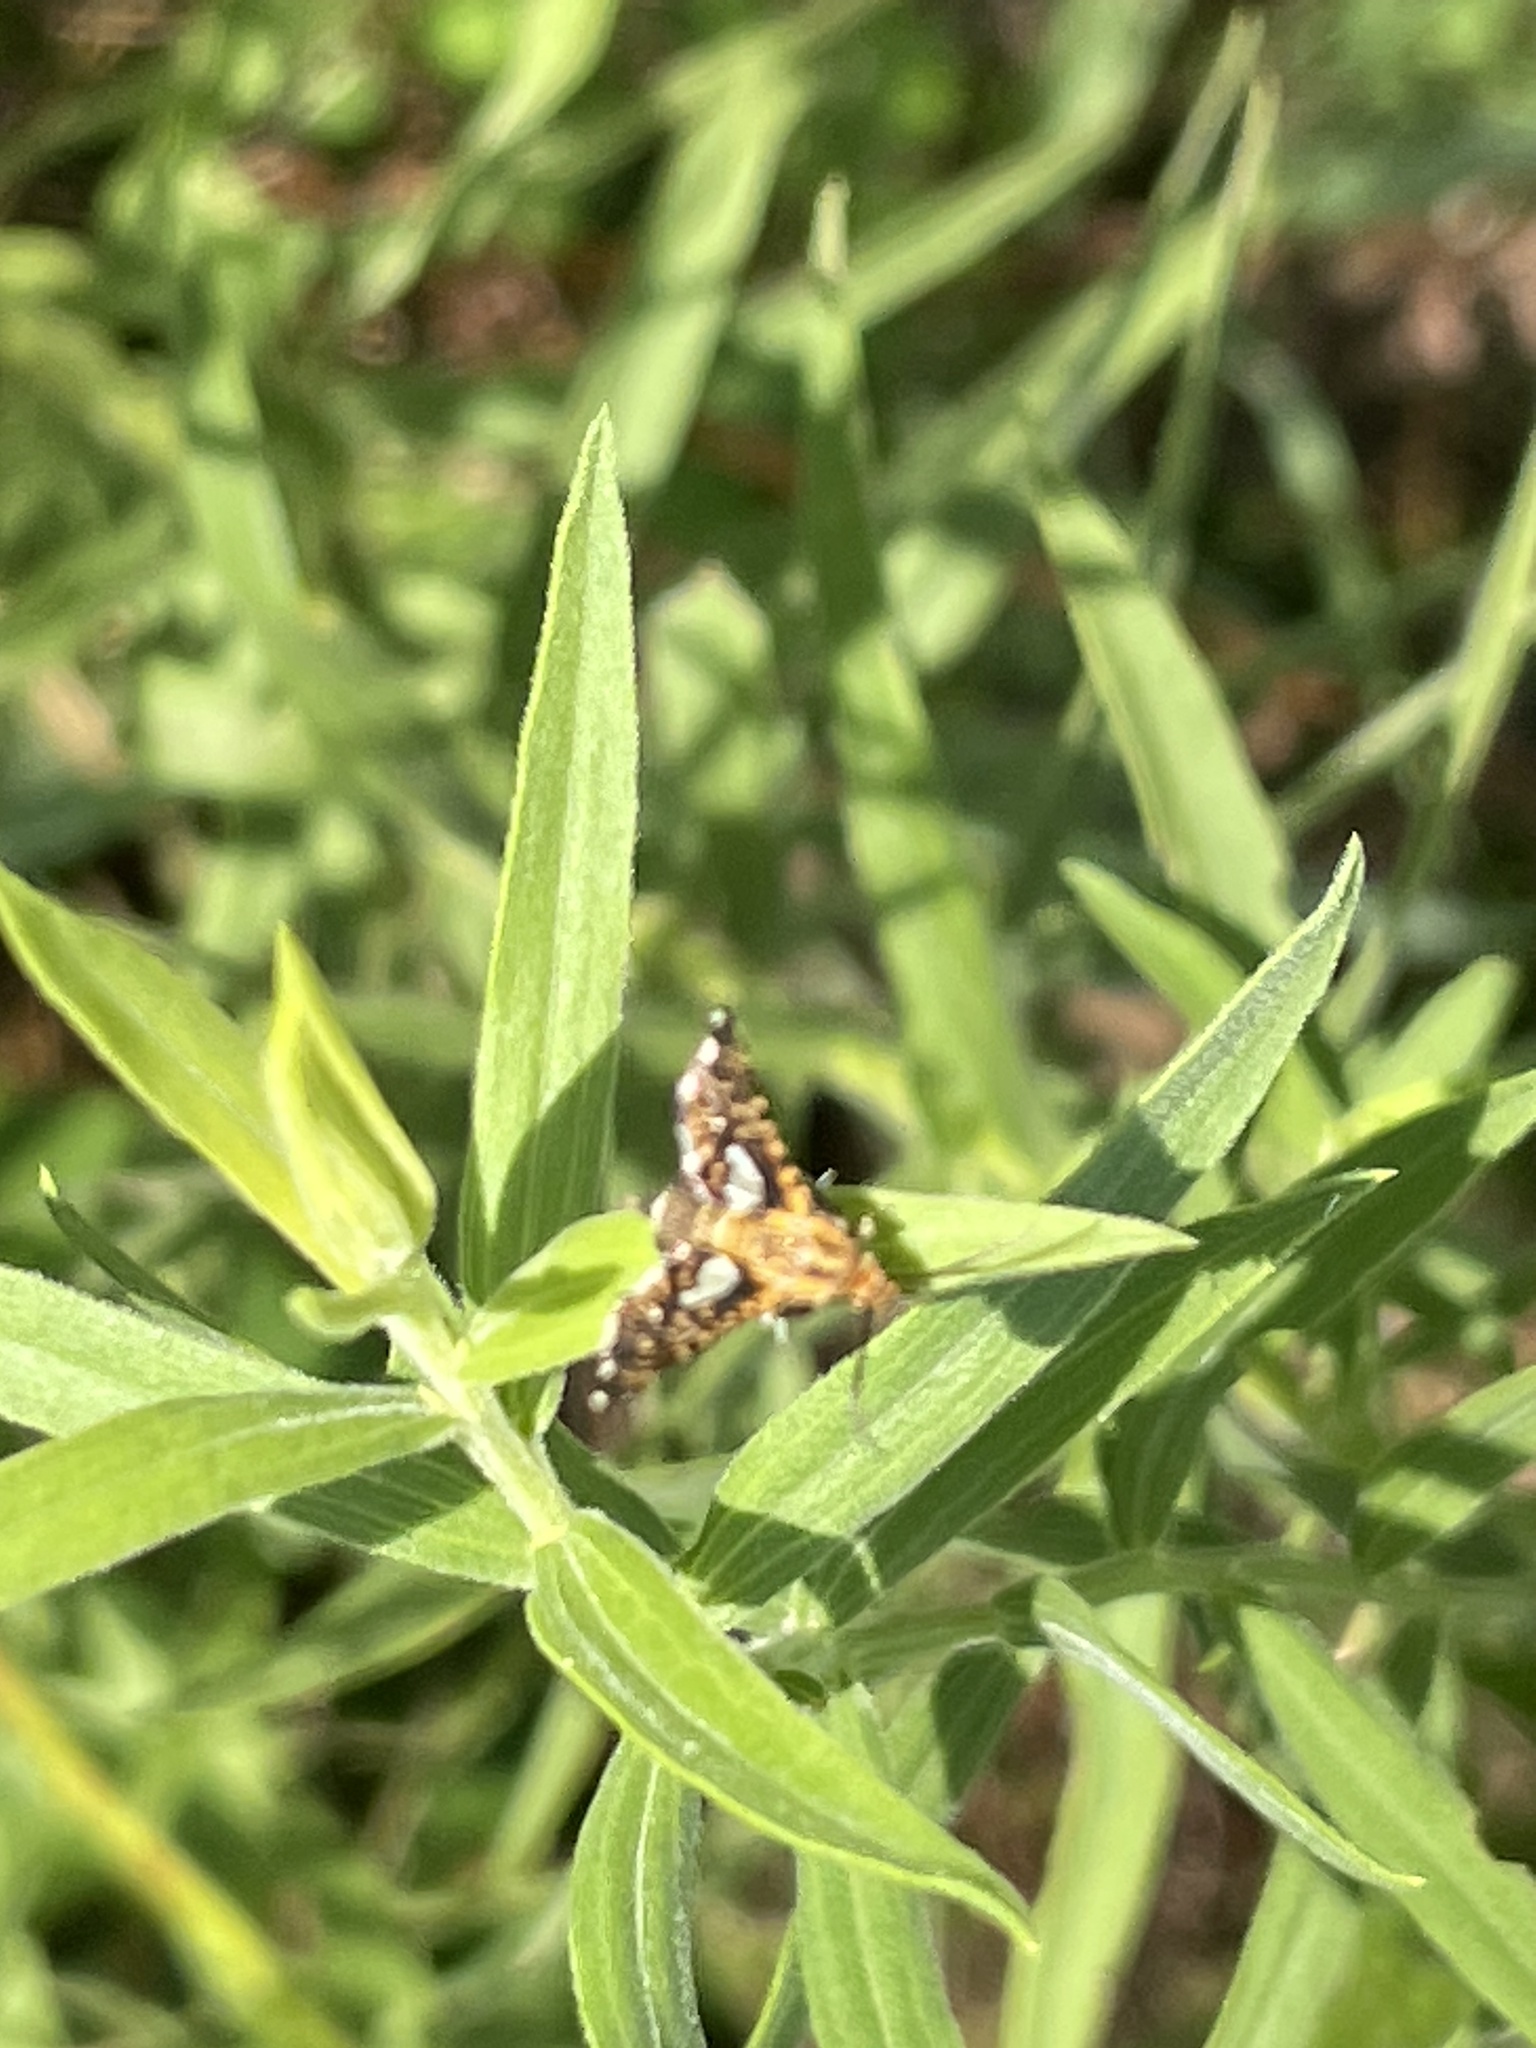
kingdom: Animalia
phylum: Arthropoda
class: Insecta
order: Lepidoptera
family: Thyrididae
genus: Thyris
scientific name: Thyris maculata
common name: Spotted thyris moth
